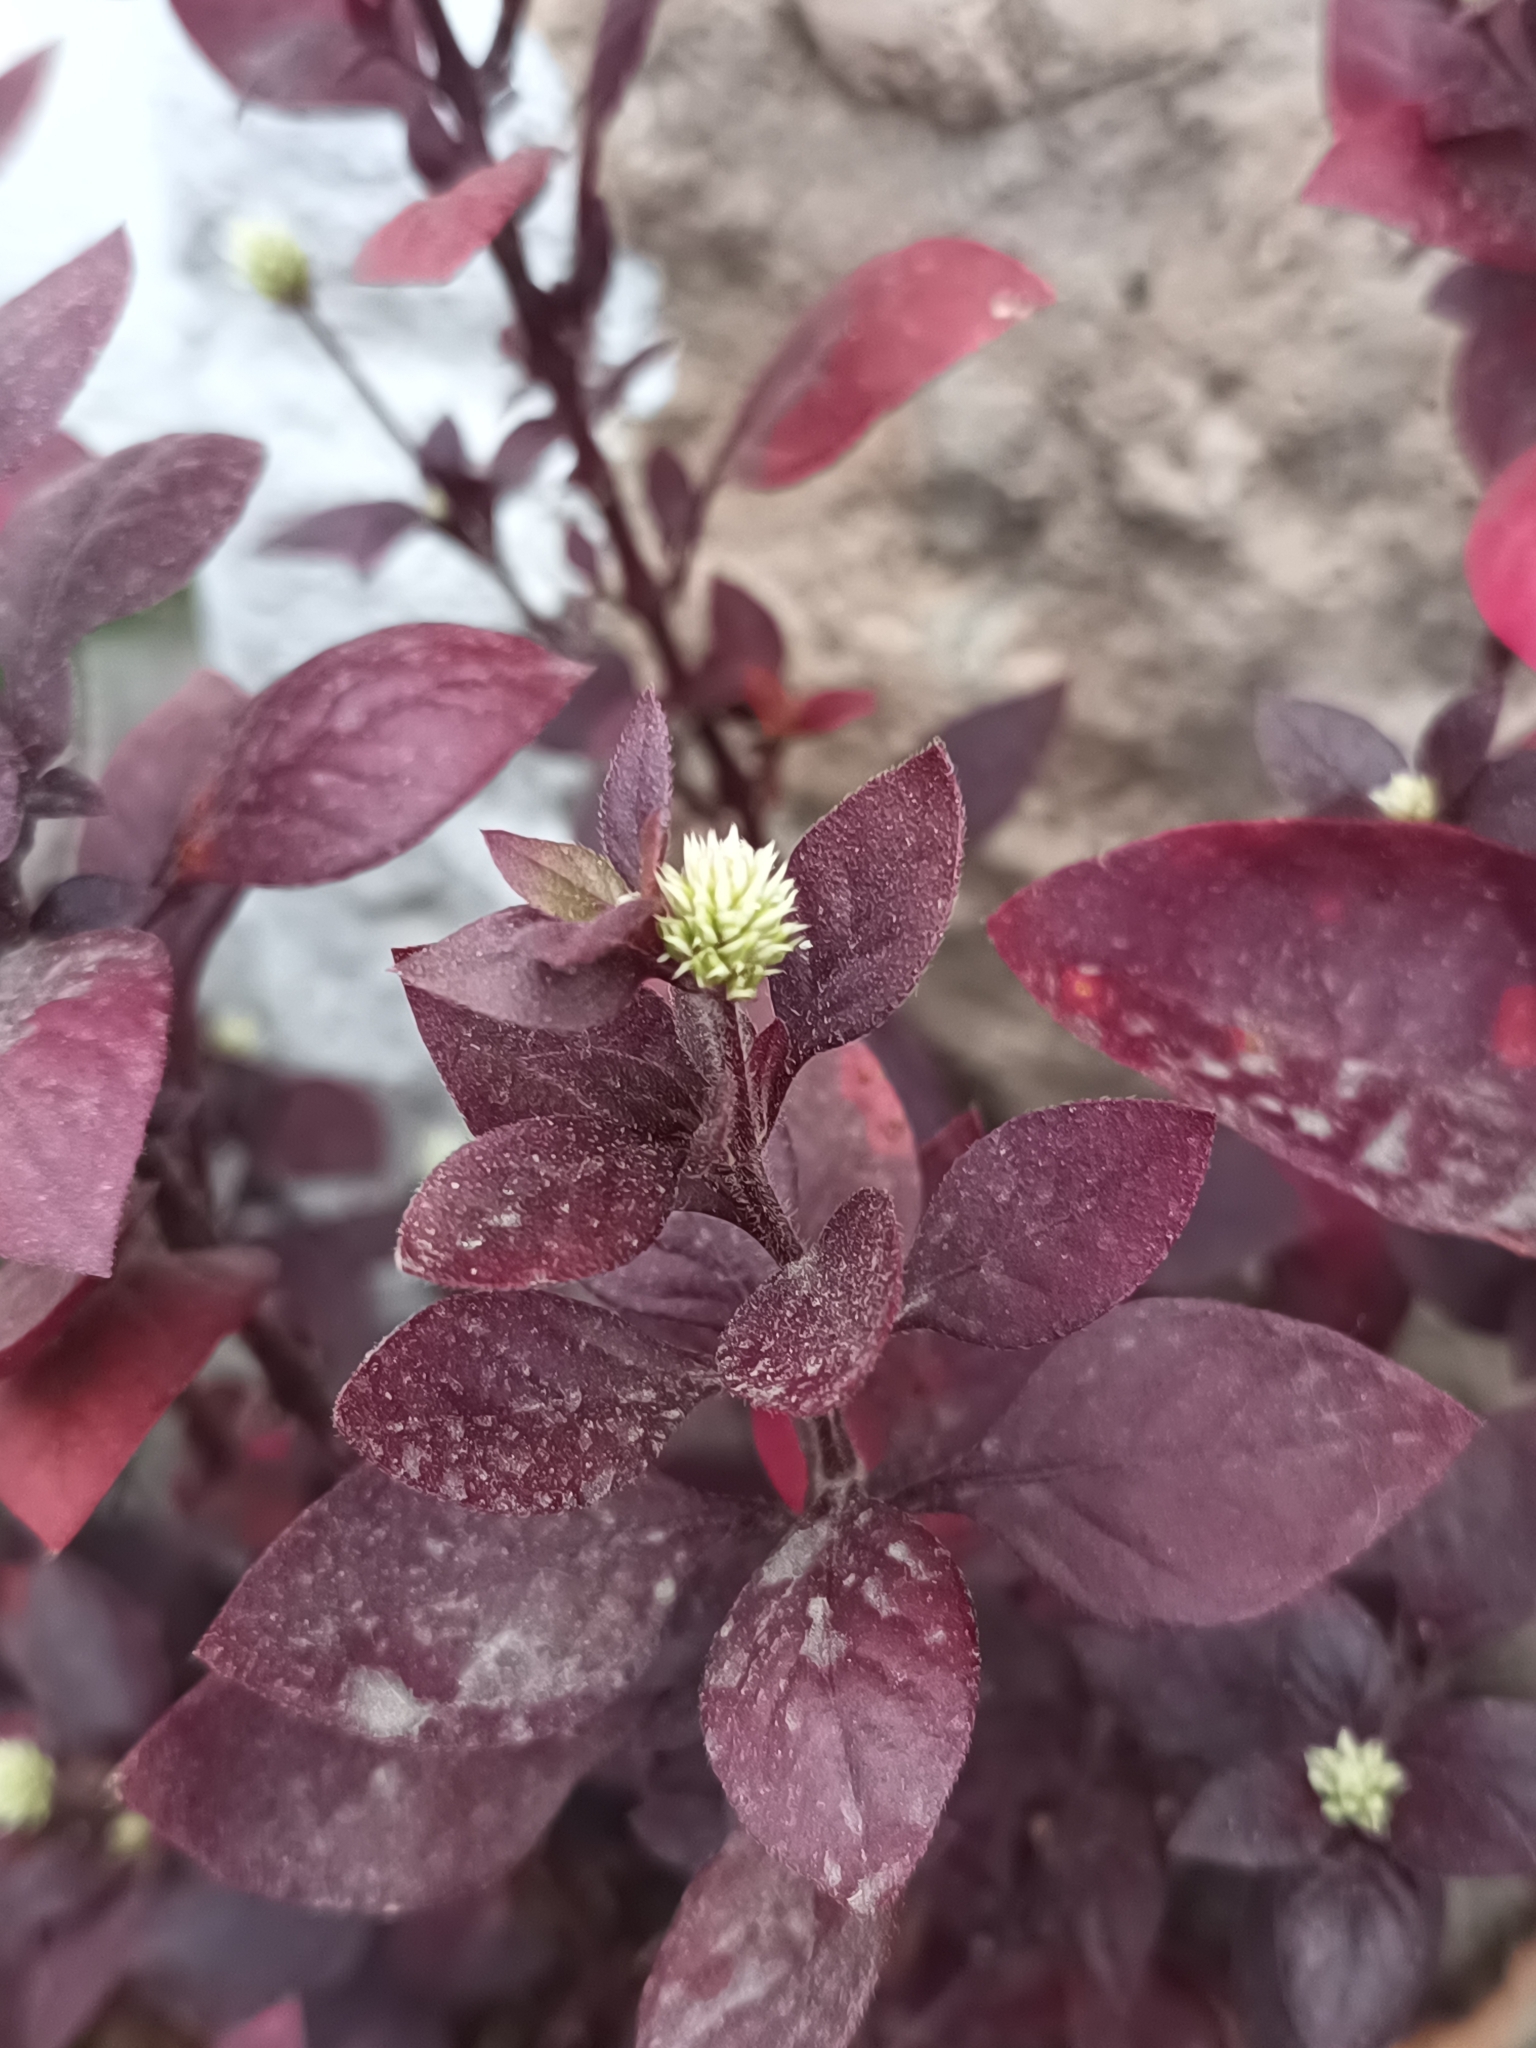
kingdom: Plantae
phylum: Tracheophyta
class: Magnoliopsida
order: Caryophyllales
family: Amaranthaceae
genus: Alternanthera
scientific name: Alternanthera brasiliana
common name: Brazilian joyweed
